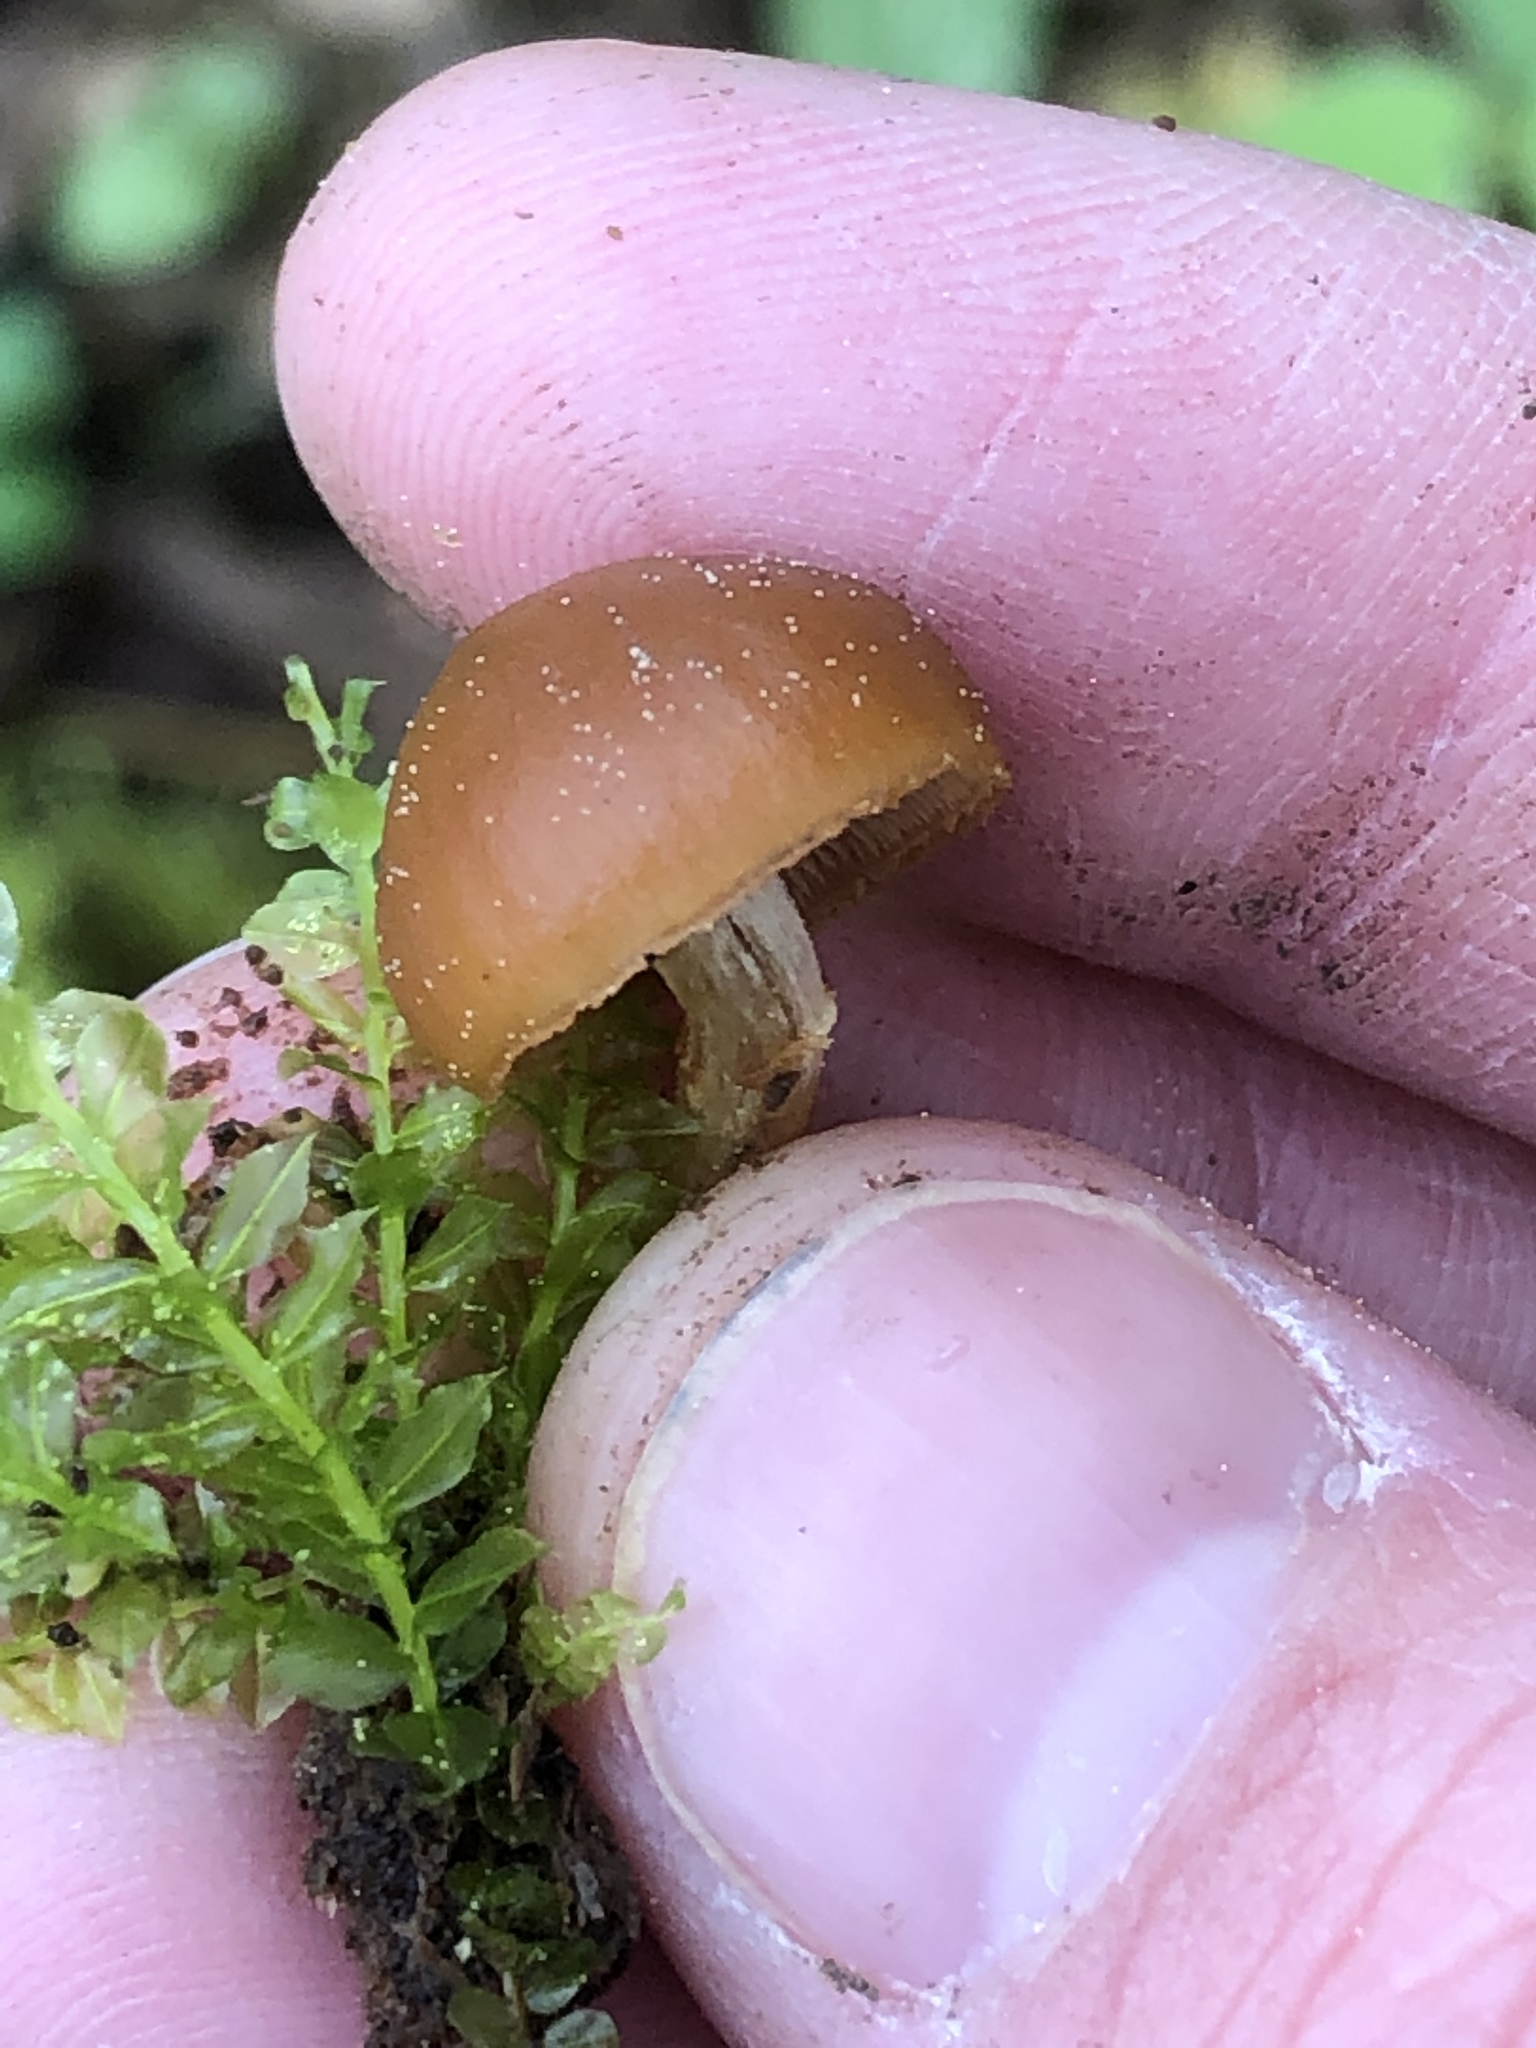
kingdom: Fungi
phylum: Basidiomycota
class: Agaricomycetes
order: Agaricales
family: Hymenogastraceae
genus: Galerina
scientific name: Galerina marginata
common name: Funeral bell
